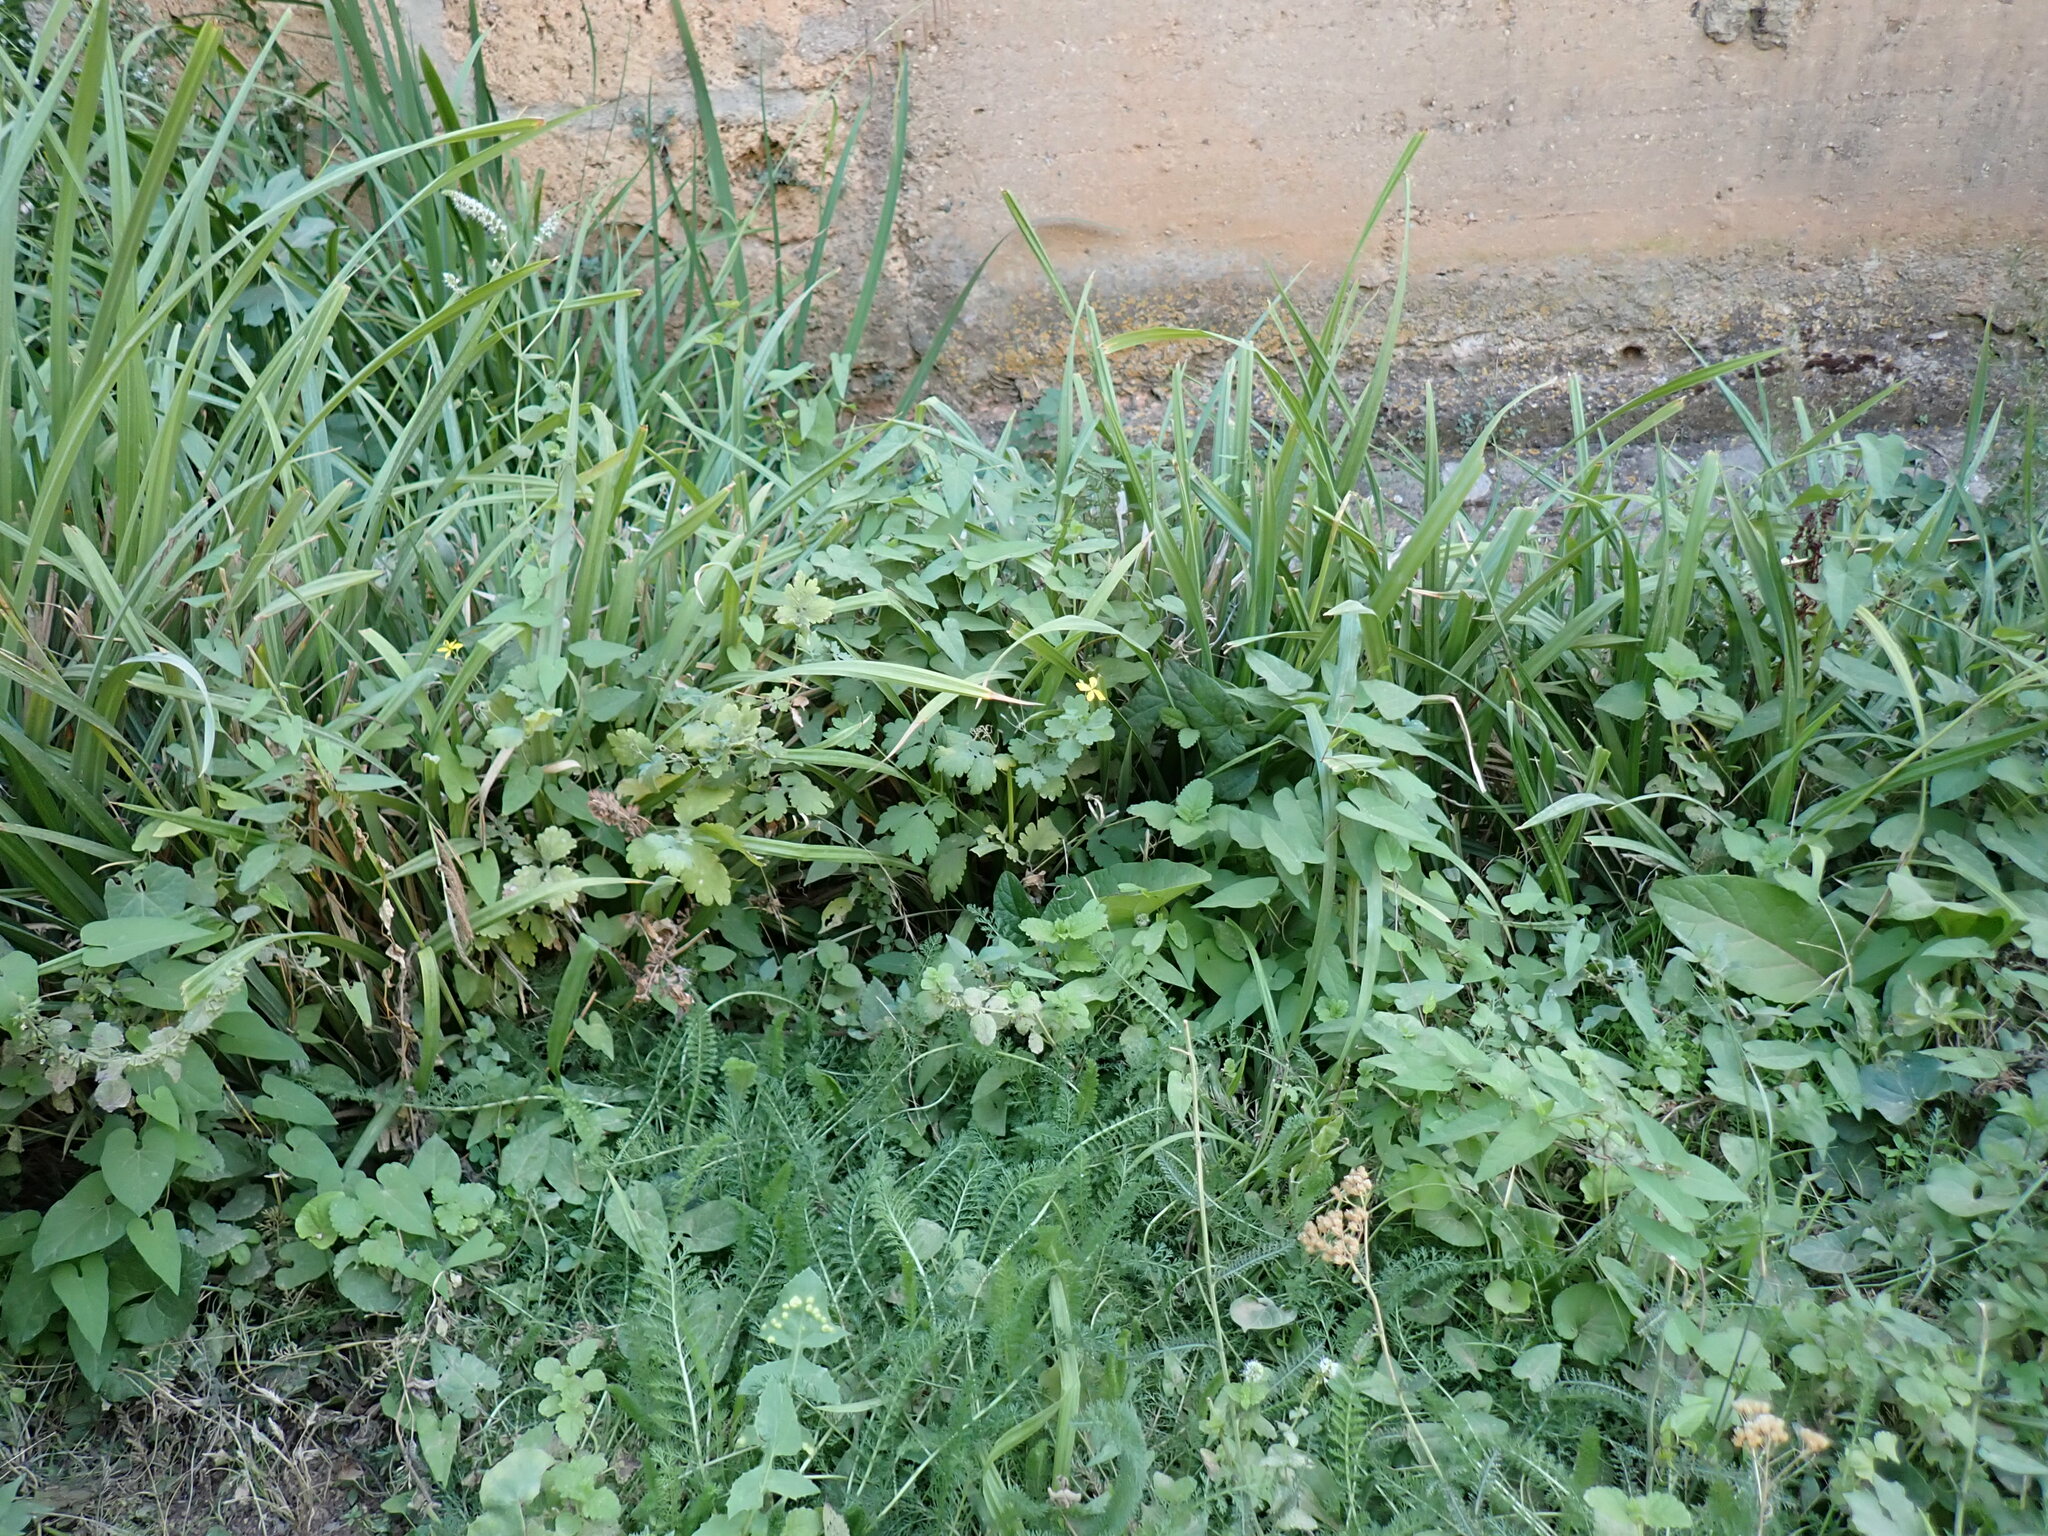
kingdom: Plantae
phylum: Tracheophyta
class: Magnoliopsida
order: Ranunculales
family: Papaveraceae
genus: Chelidonium
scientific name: Chelidonium majus
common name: Greater celandine
